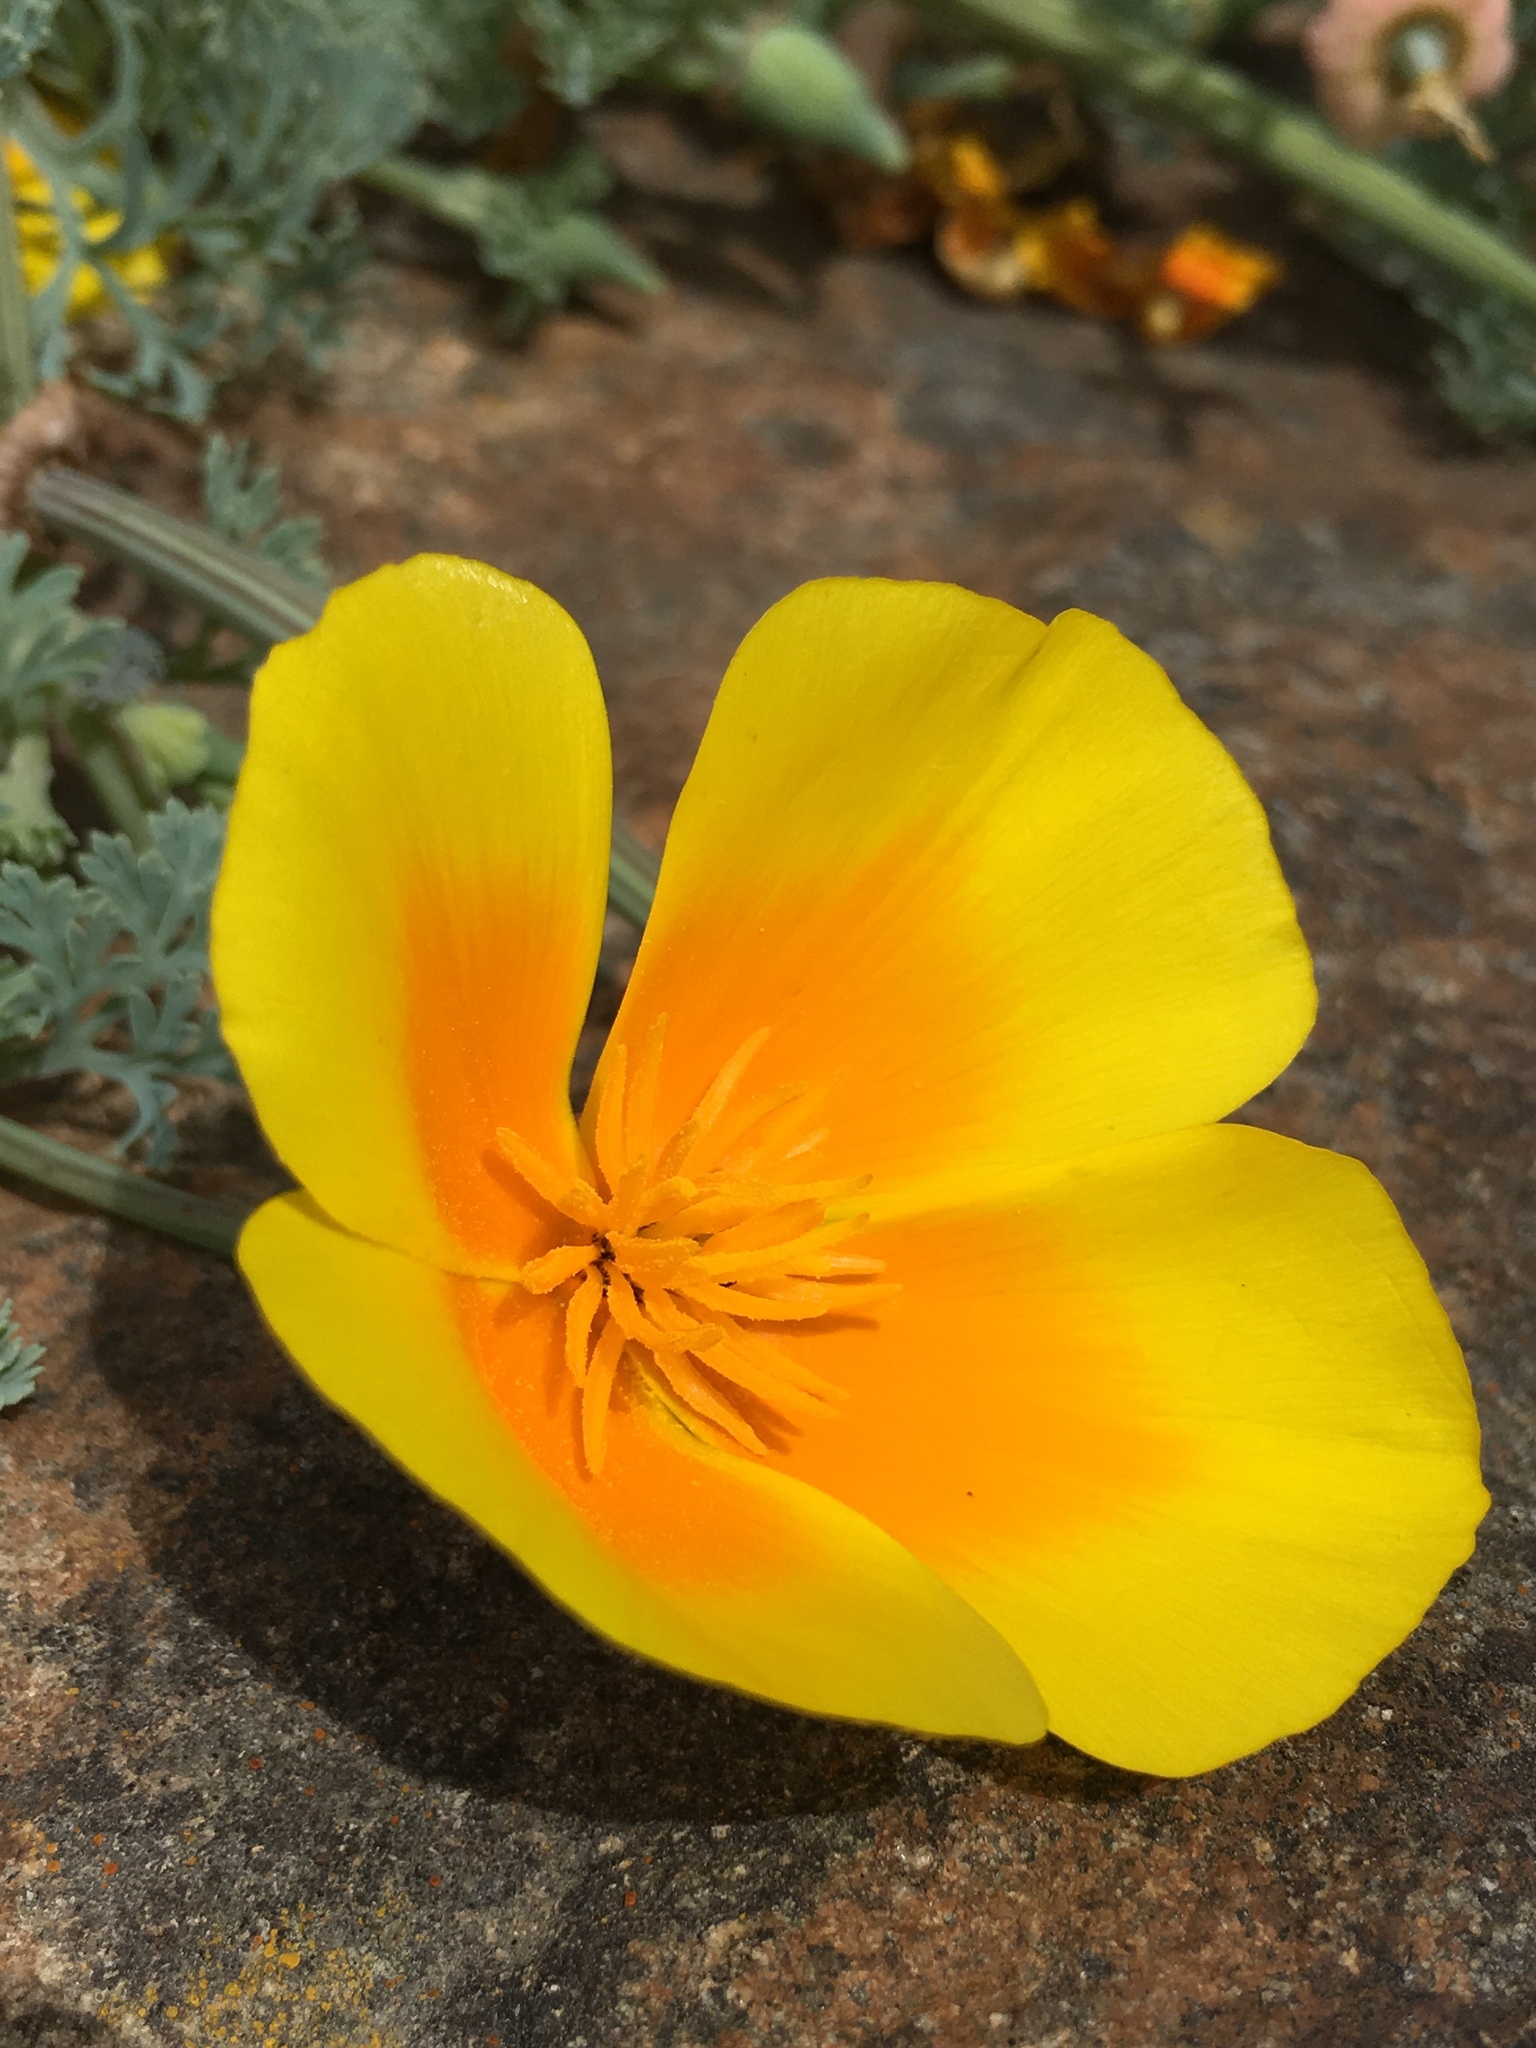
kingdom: Plantae
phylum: Tracheophyta
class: Magnoliopsida
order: Ranunculales
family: Papaveraceae
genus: Eschscholzia
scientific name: Eschscholzia californica
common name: California poppy
